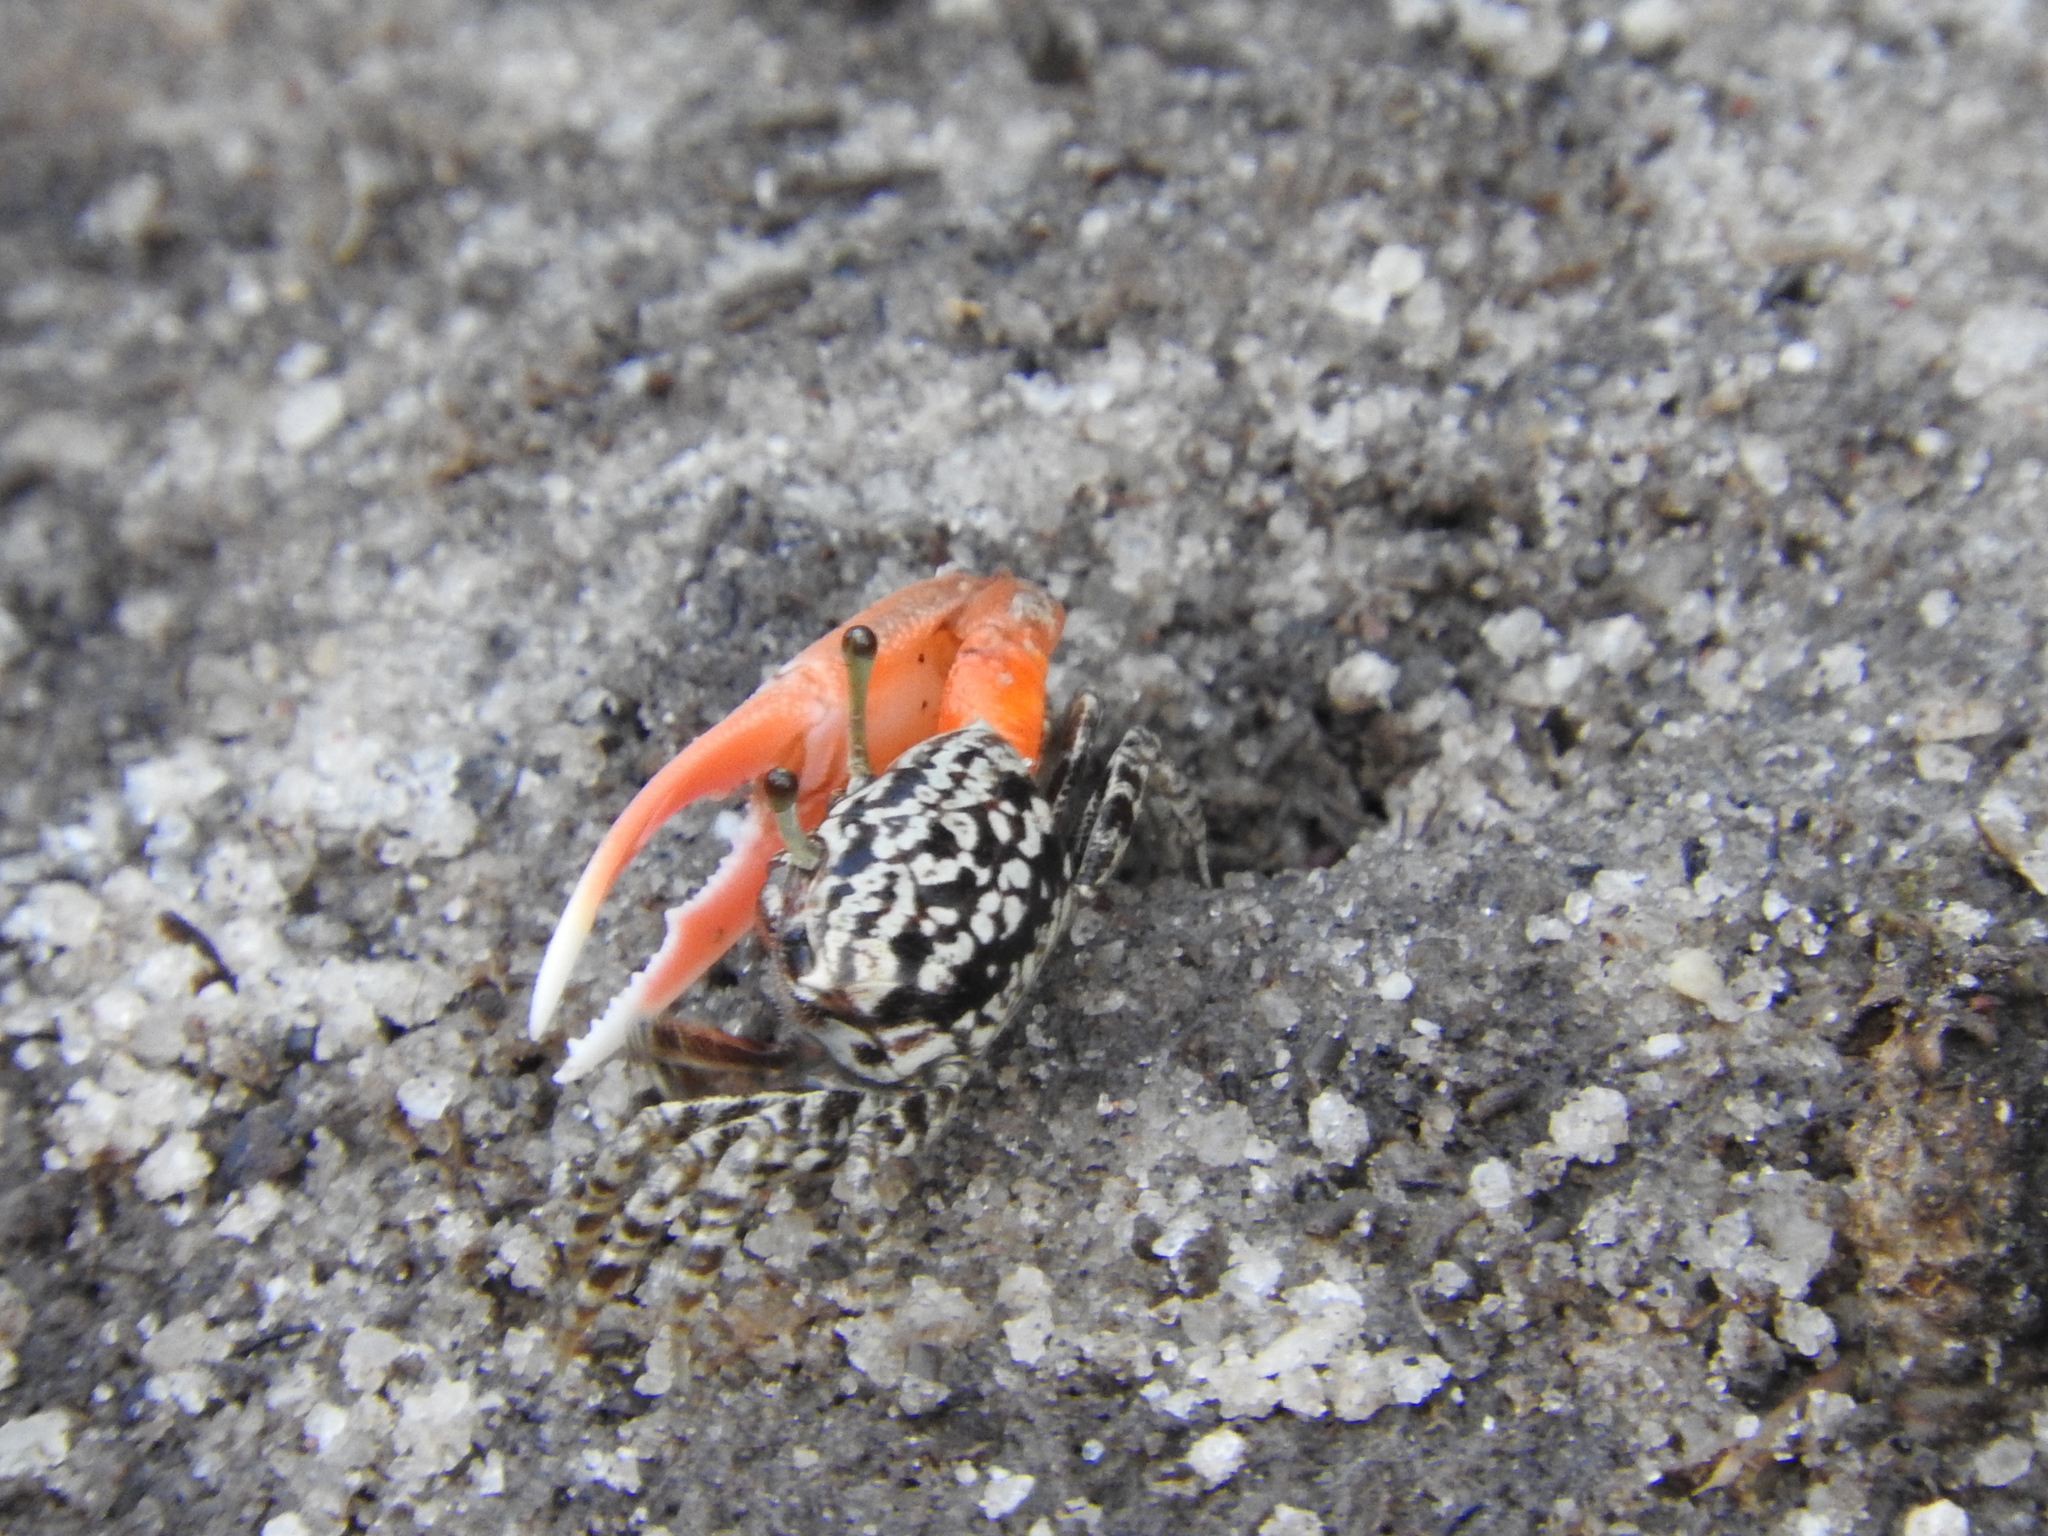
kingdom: Animalia
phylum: Arthropoda
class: Malacostraca
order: Decapoda
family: Ocypodidae
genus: Austruca
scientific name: Austruca occidentalis
